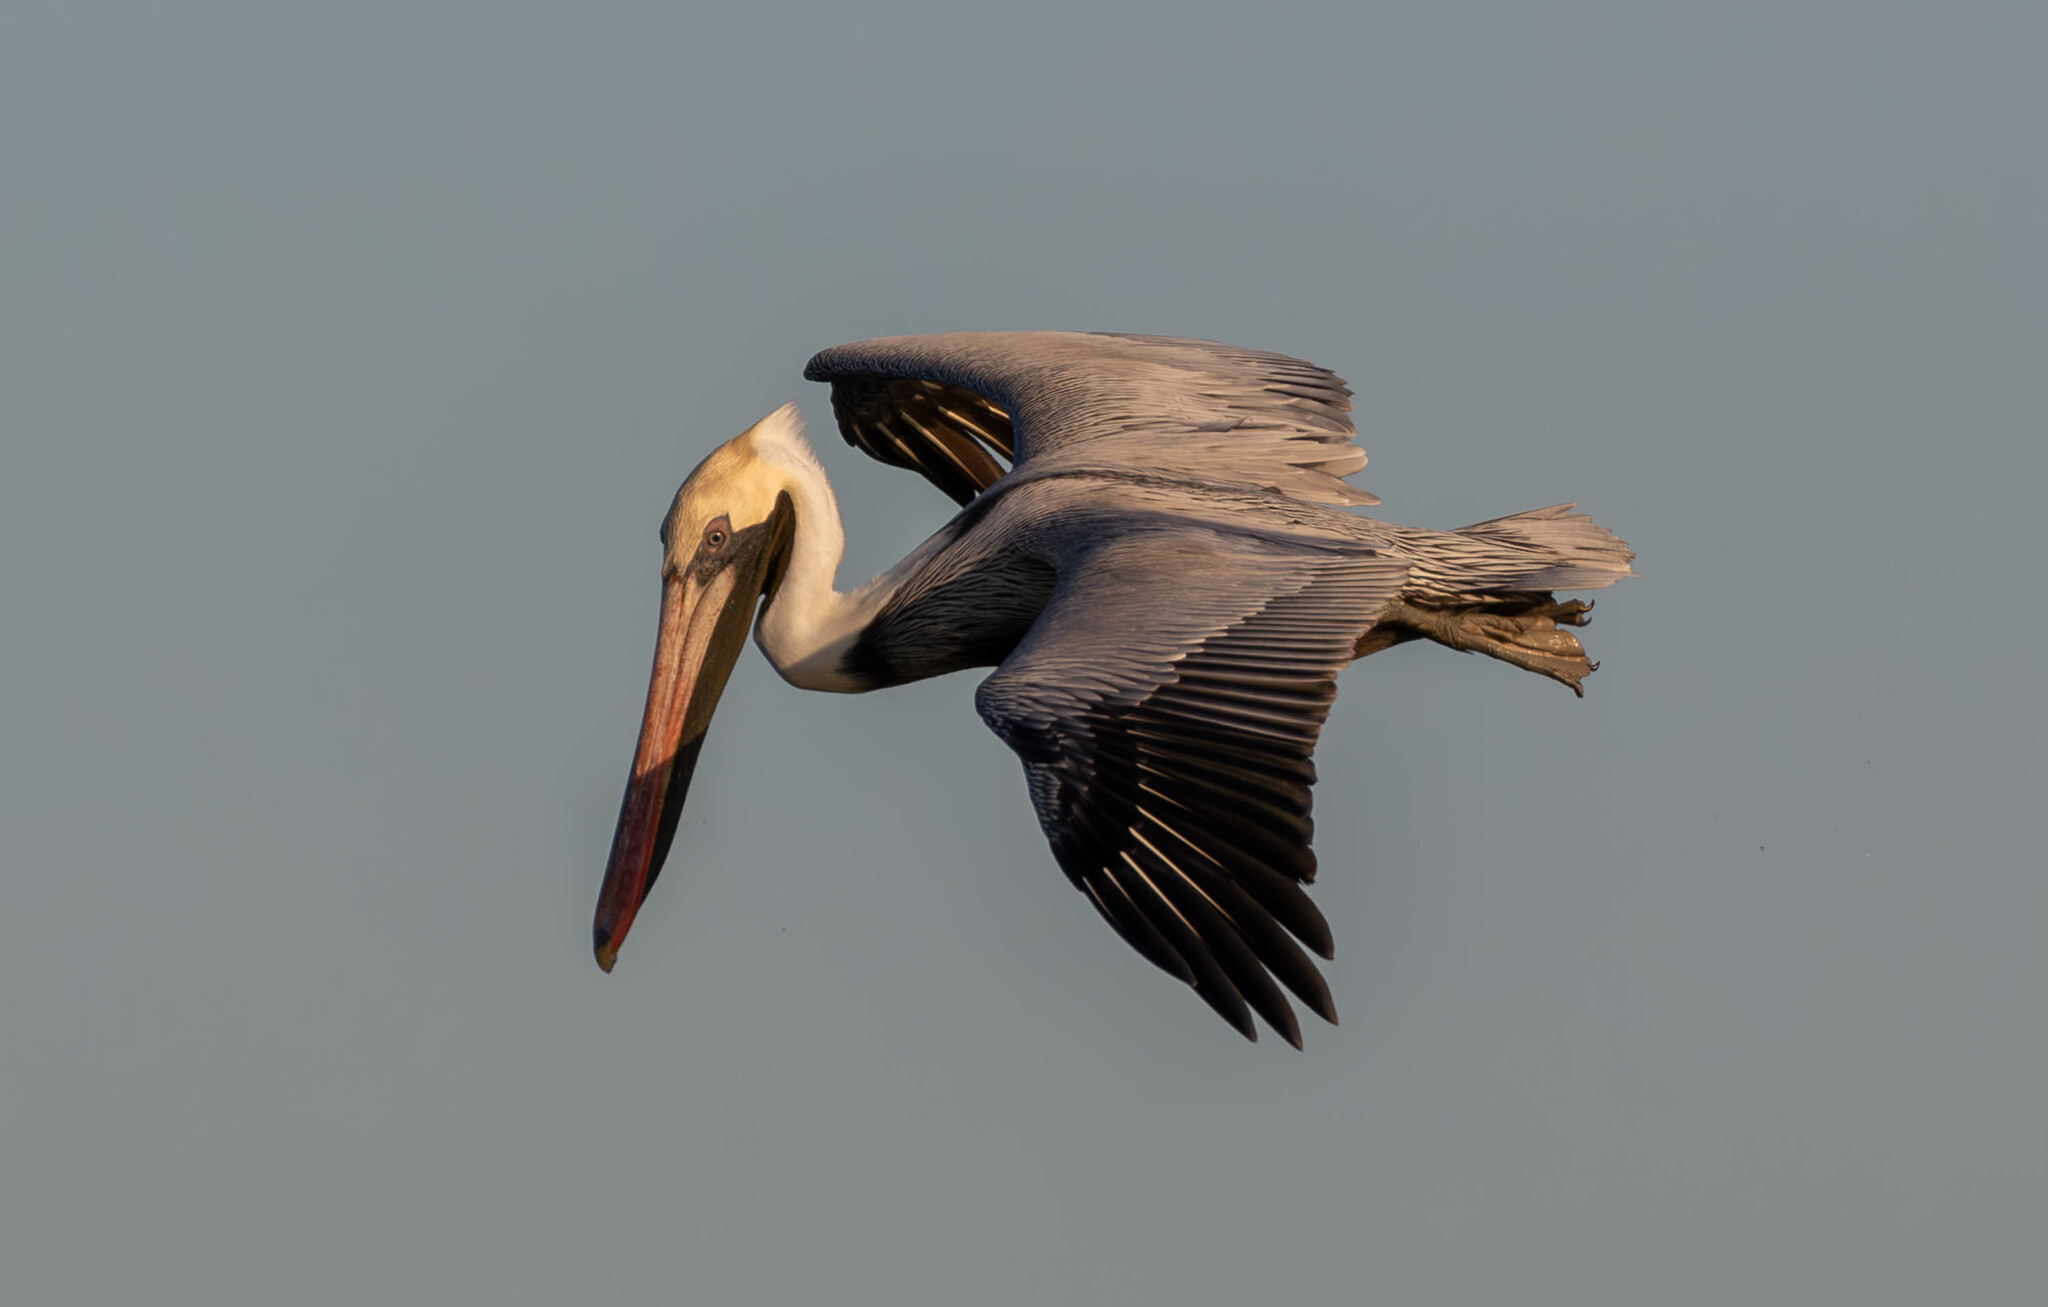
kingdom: Animalia
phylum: Chordata
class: Aves
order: Pelecaniformes
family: Pelecanidae
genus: Pelecanus
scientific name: Pelecanus occidentalis
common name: Brown pelican
